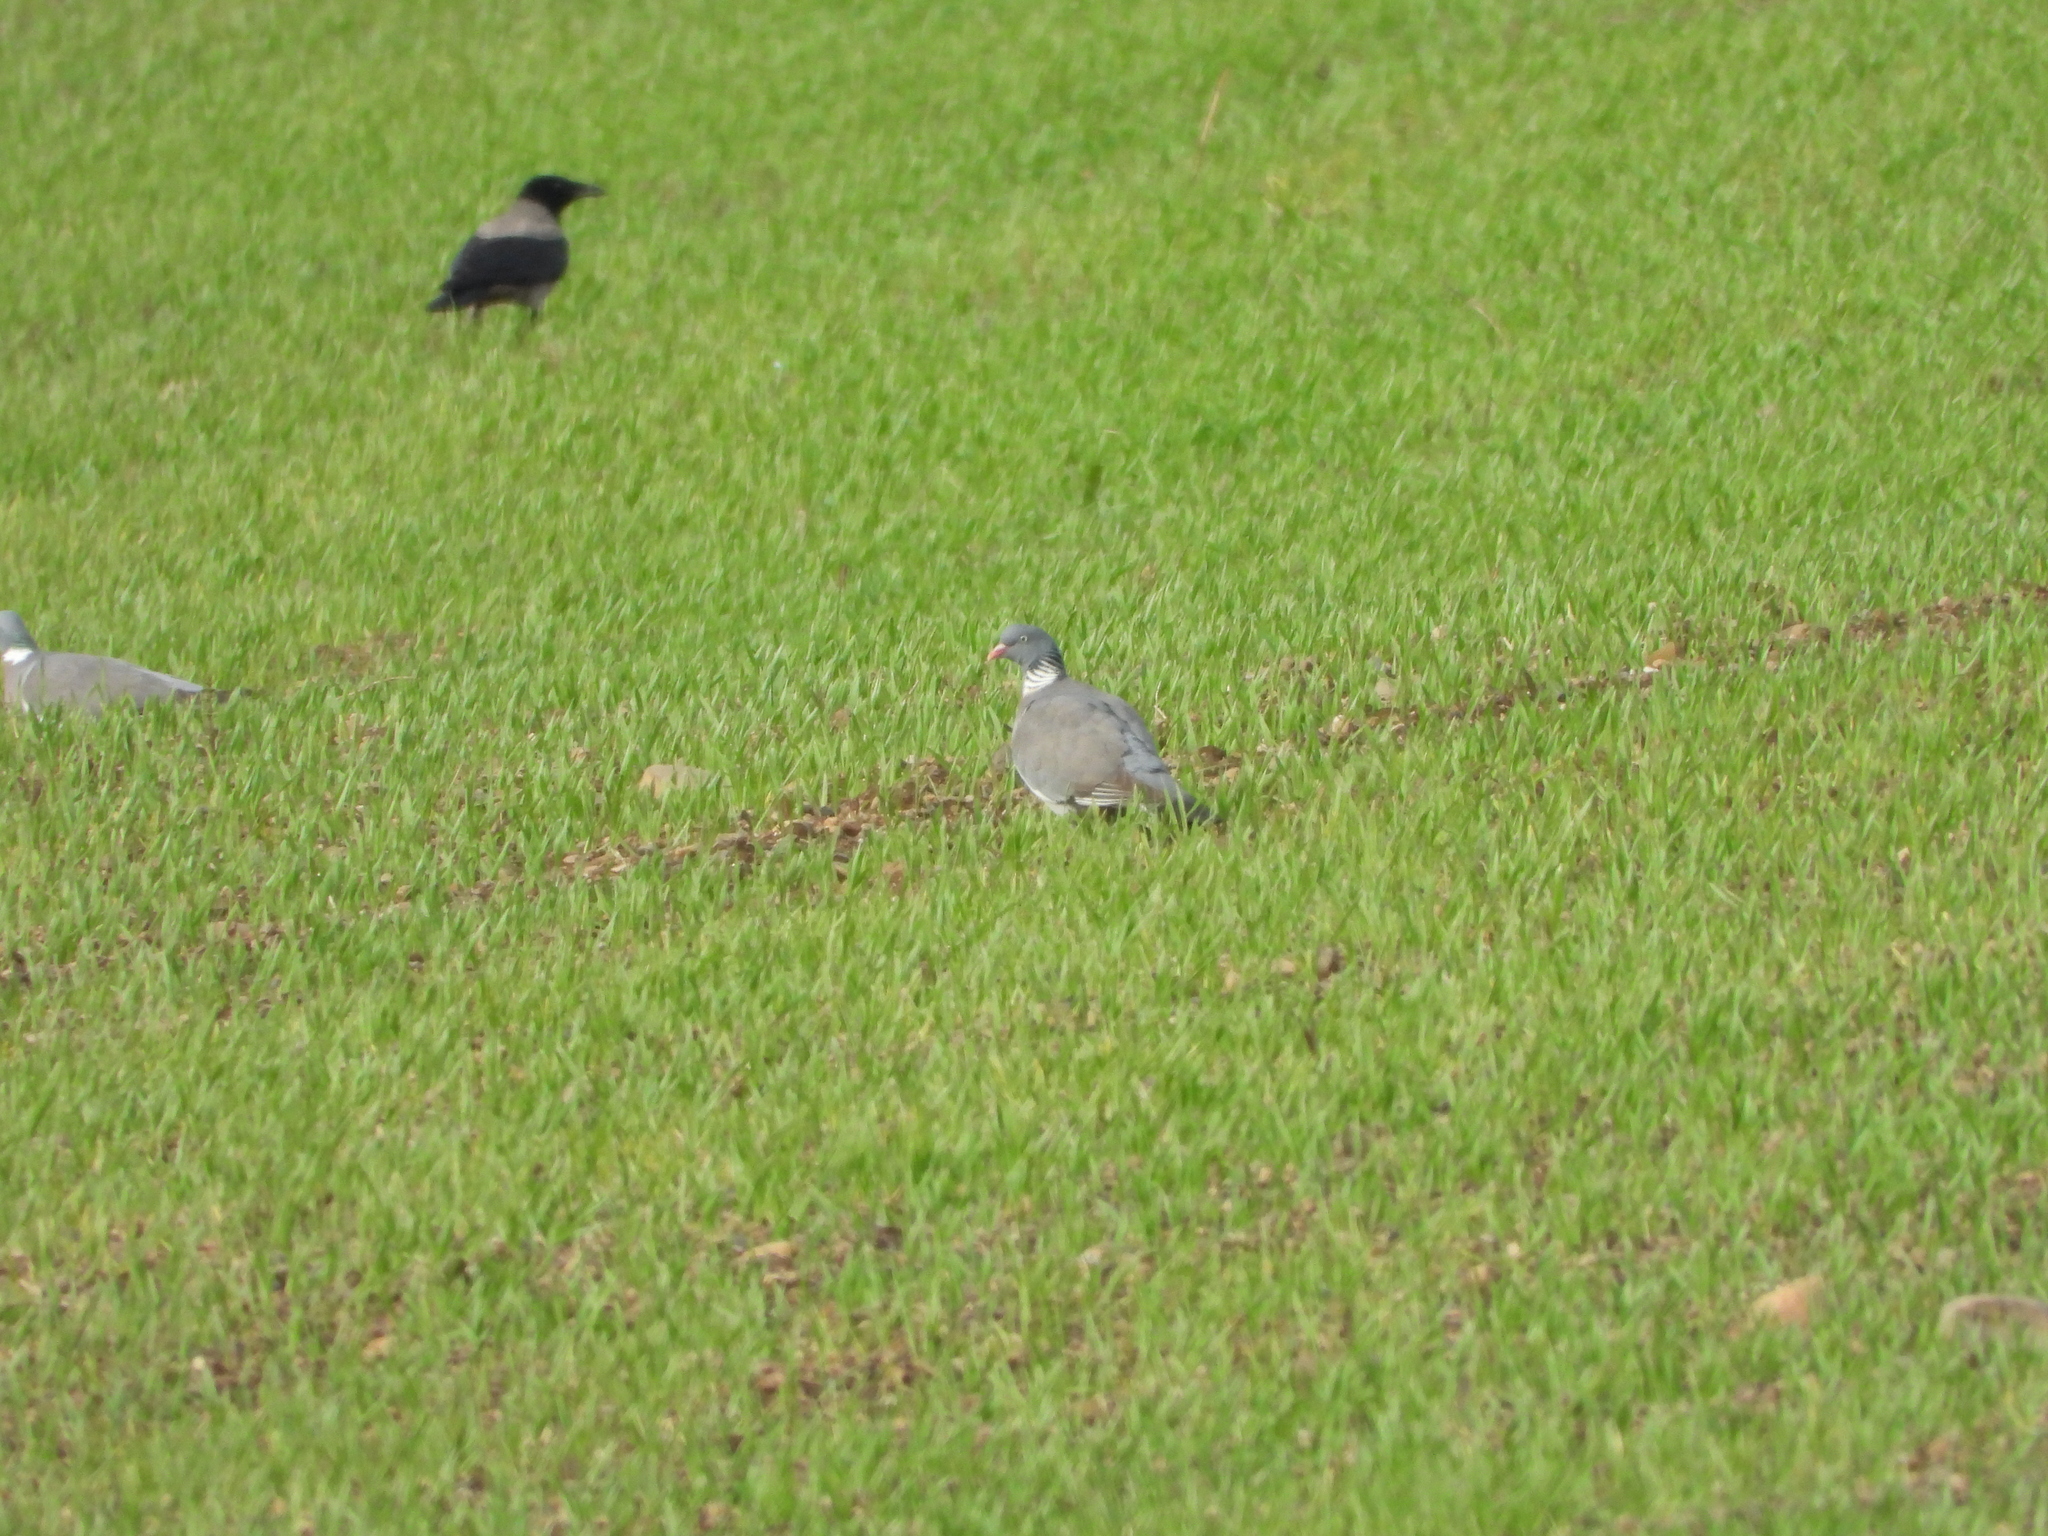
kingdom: Animalia
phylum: Chordata
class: Aves
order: Columbiformes
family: Columbidae
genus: Columba
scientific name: Columba palumbus
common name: Common wood pigeon
